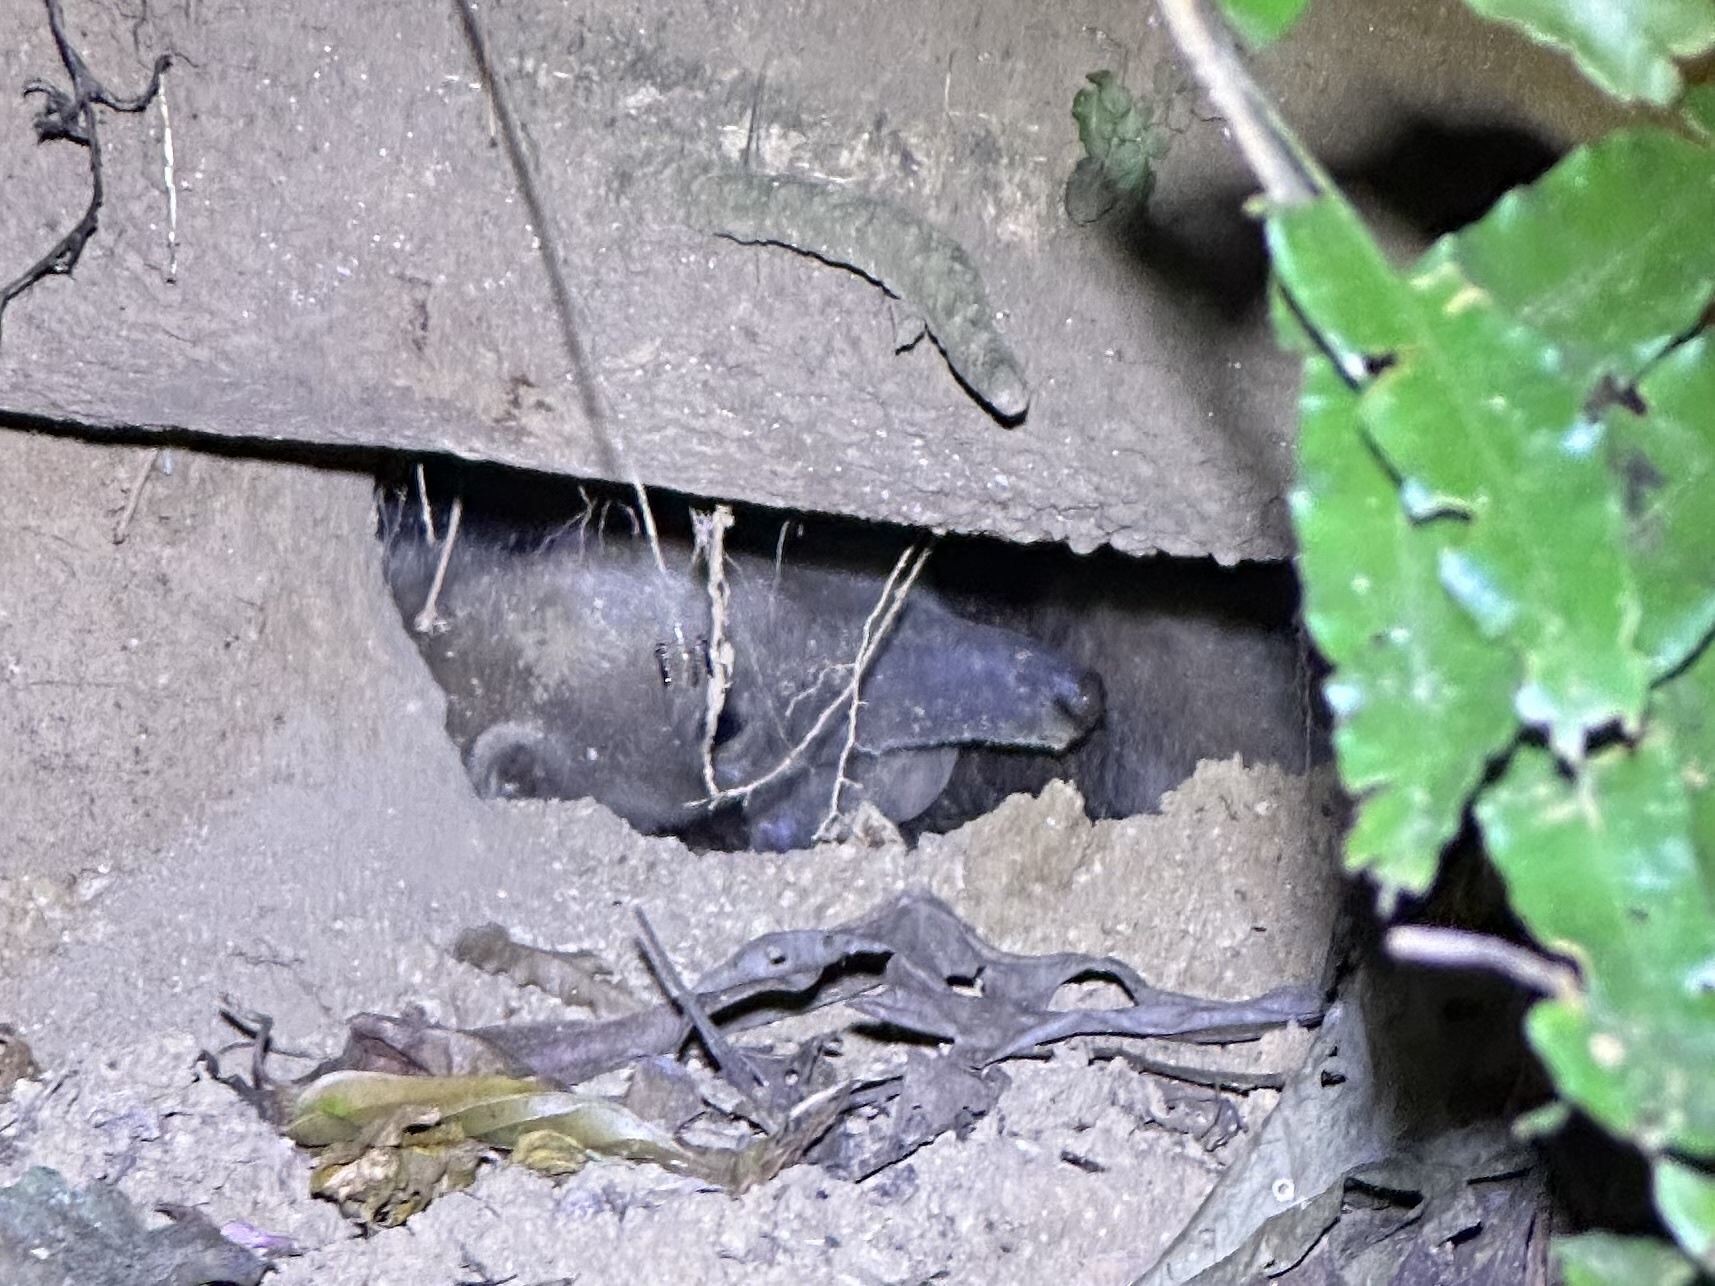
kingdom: Animalia
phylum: Chordata
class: Mammalia
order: Pilosa
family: Myrmecophagidae
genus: Tamandua
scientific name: Tamandua mexicana
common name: Northern tamandua
